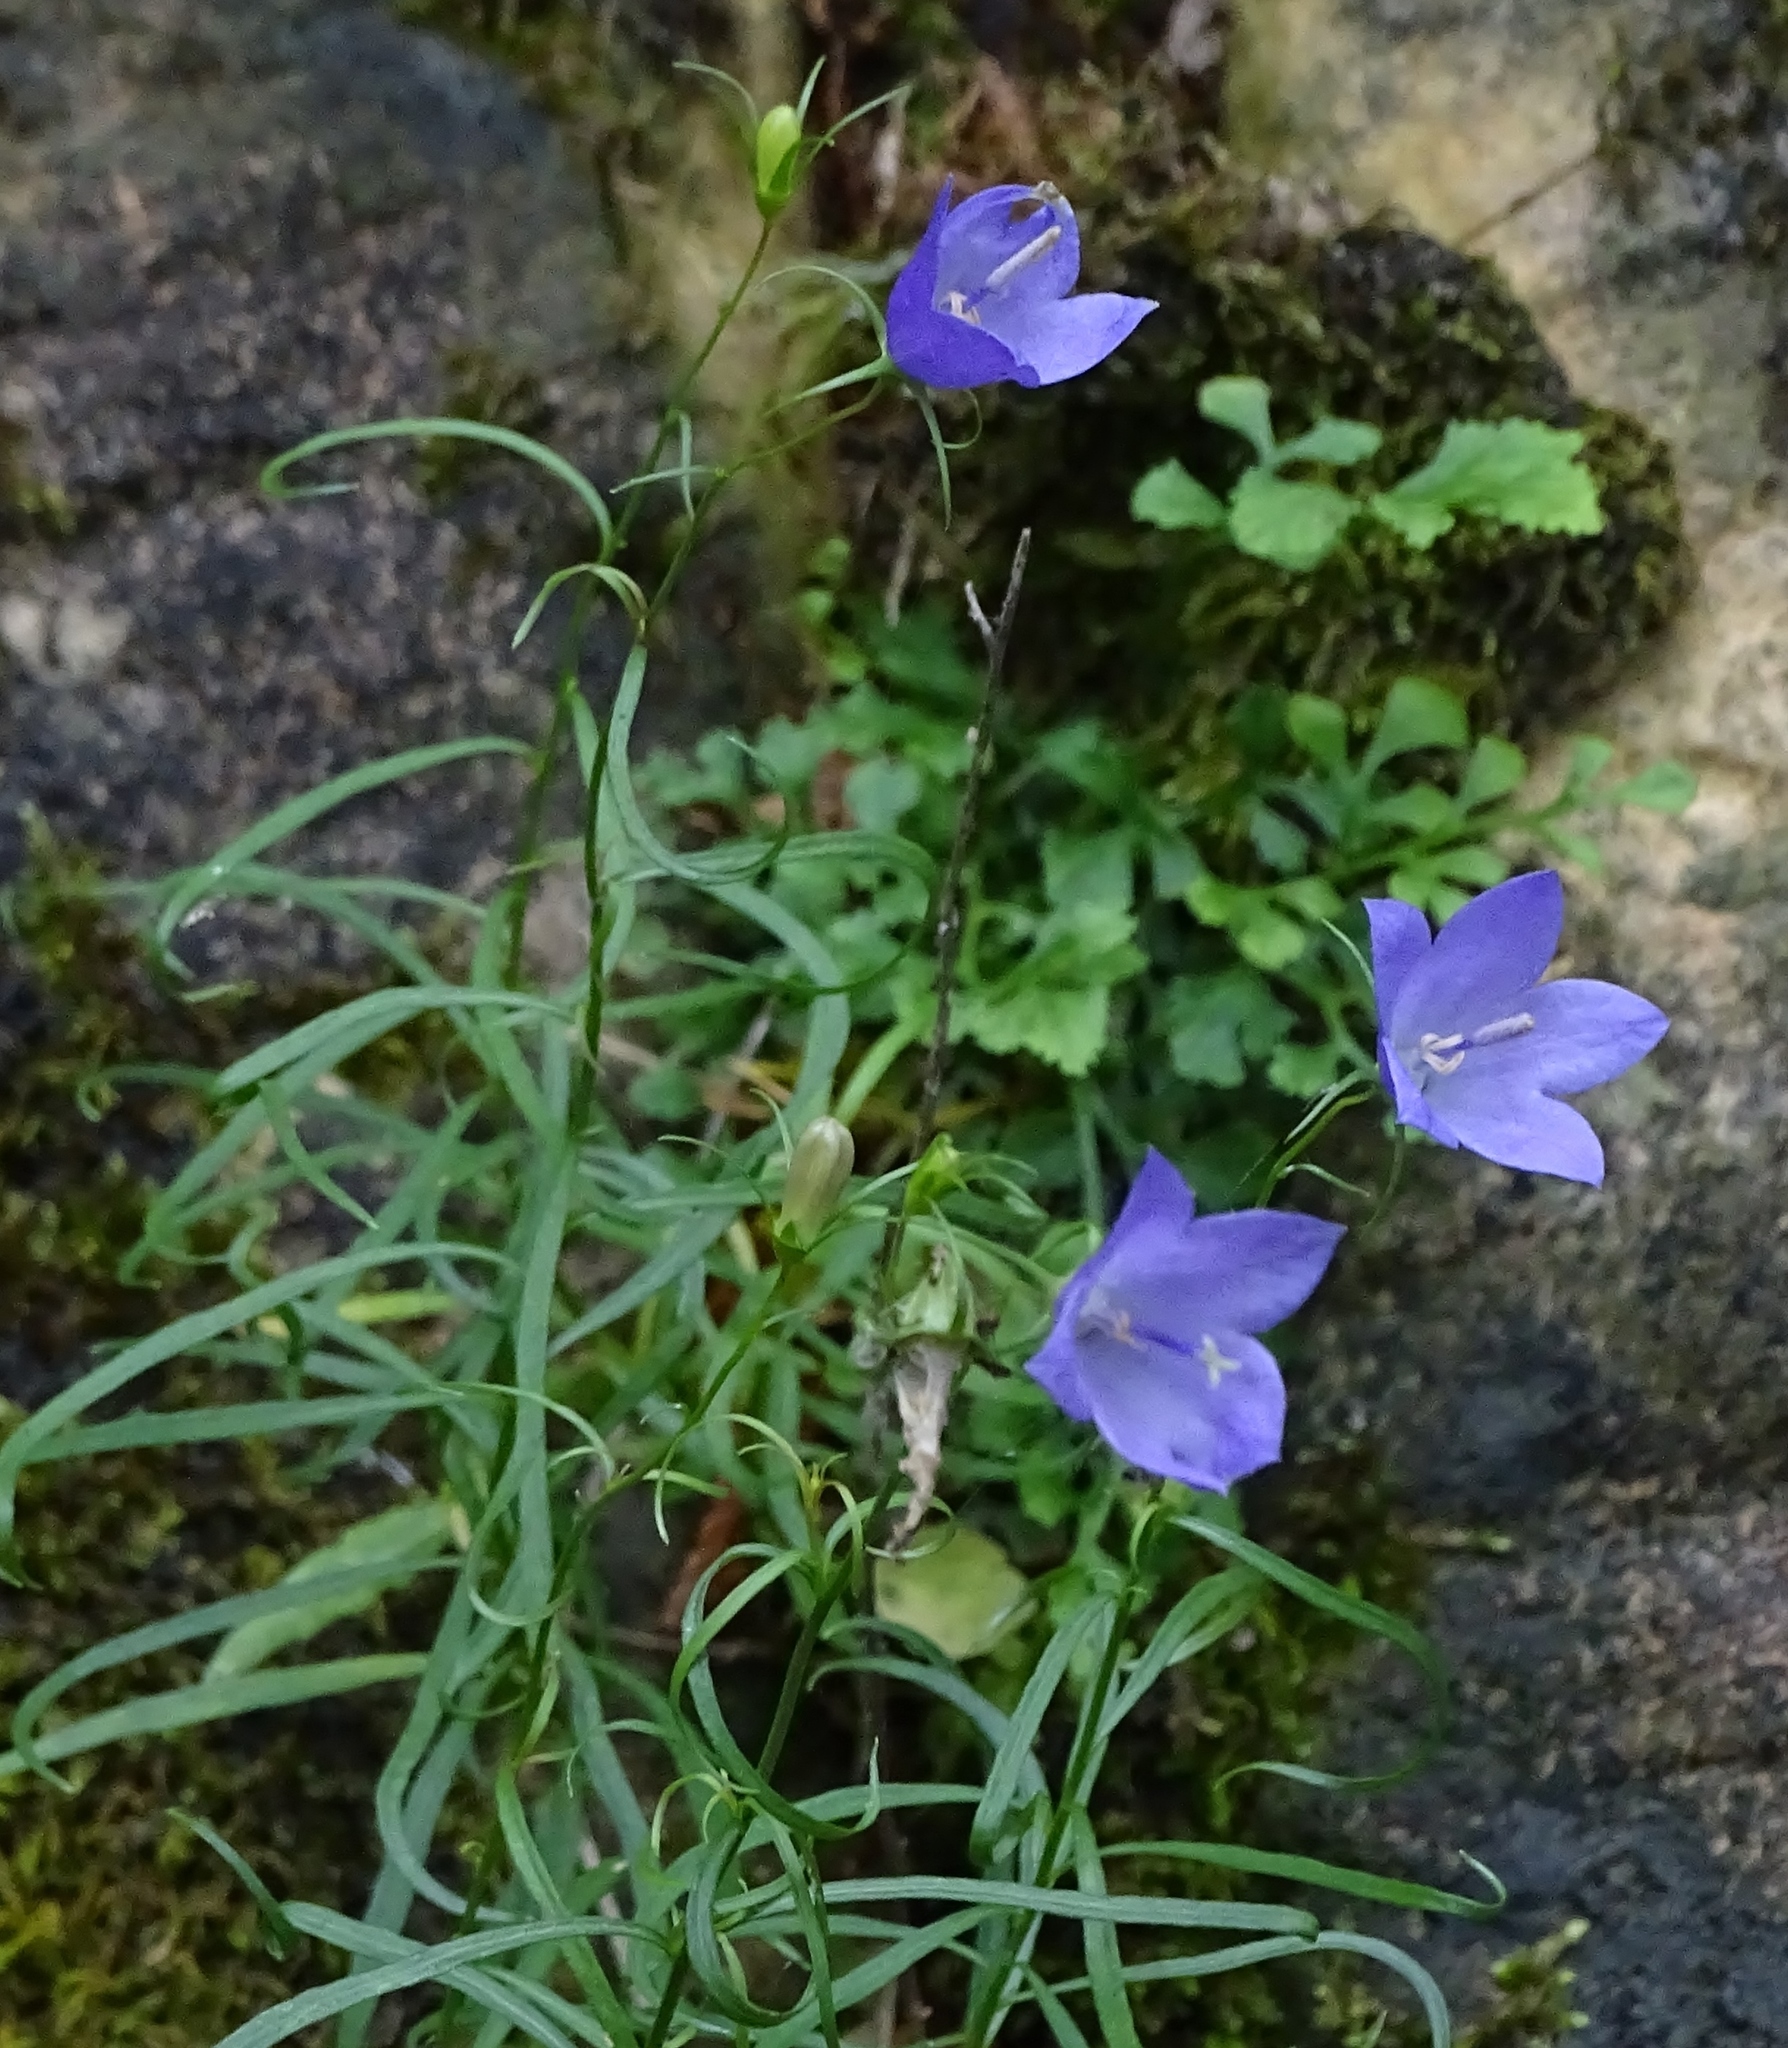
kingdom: Plantae
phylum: Tracheophyta
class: Magnoliopsida
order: Asterales
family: Campanulaceae
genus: Campanula
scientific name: Campanula intercedens
